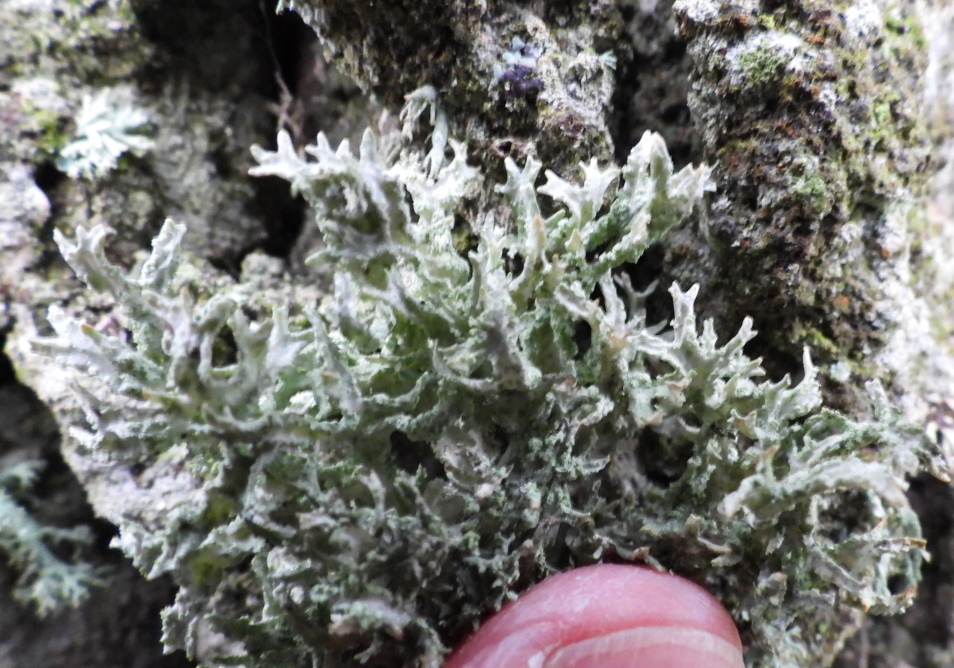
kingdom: Fungi
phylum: Ascomycota
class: Lecanoromycetes
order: Lecanorales
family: Parmeliaceae
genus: Evernia
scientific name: Evernia prunastri
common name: Oak moss
